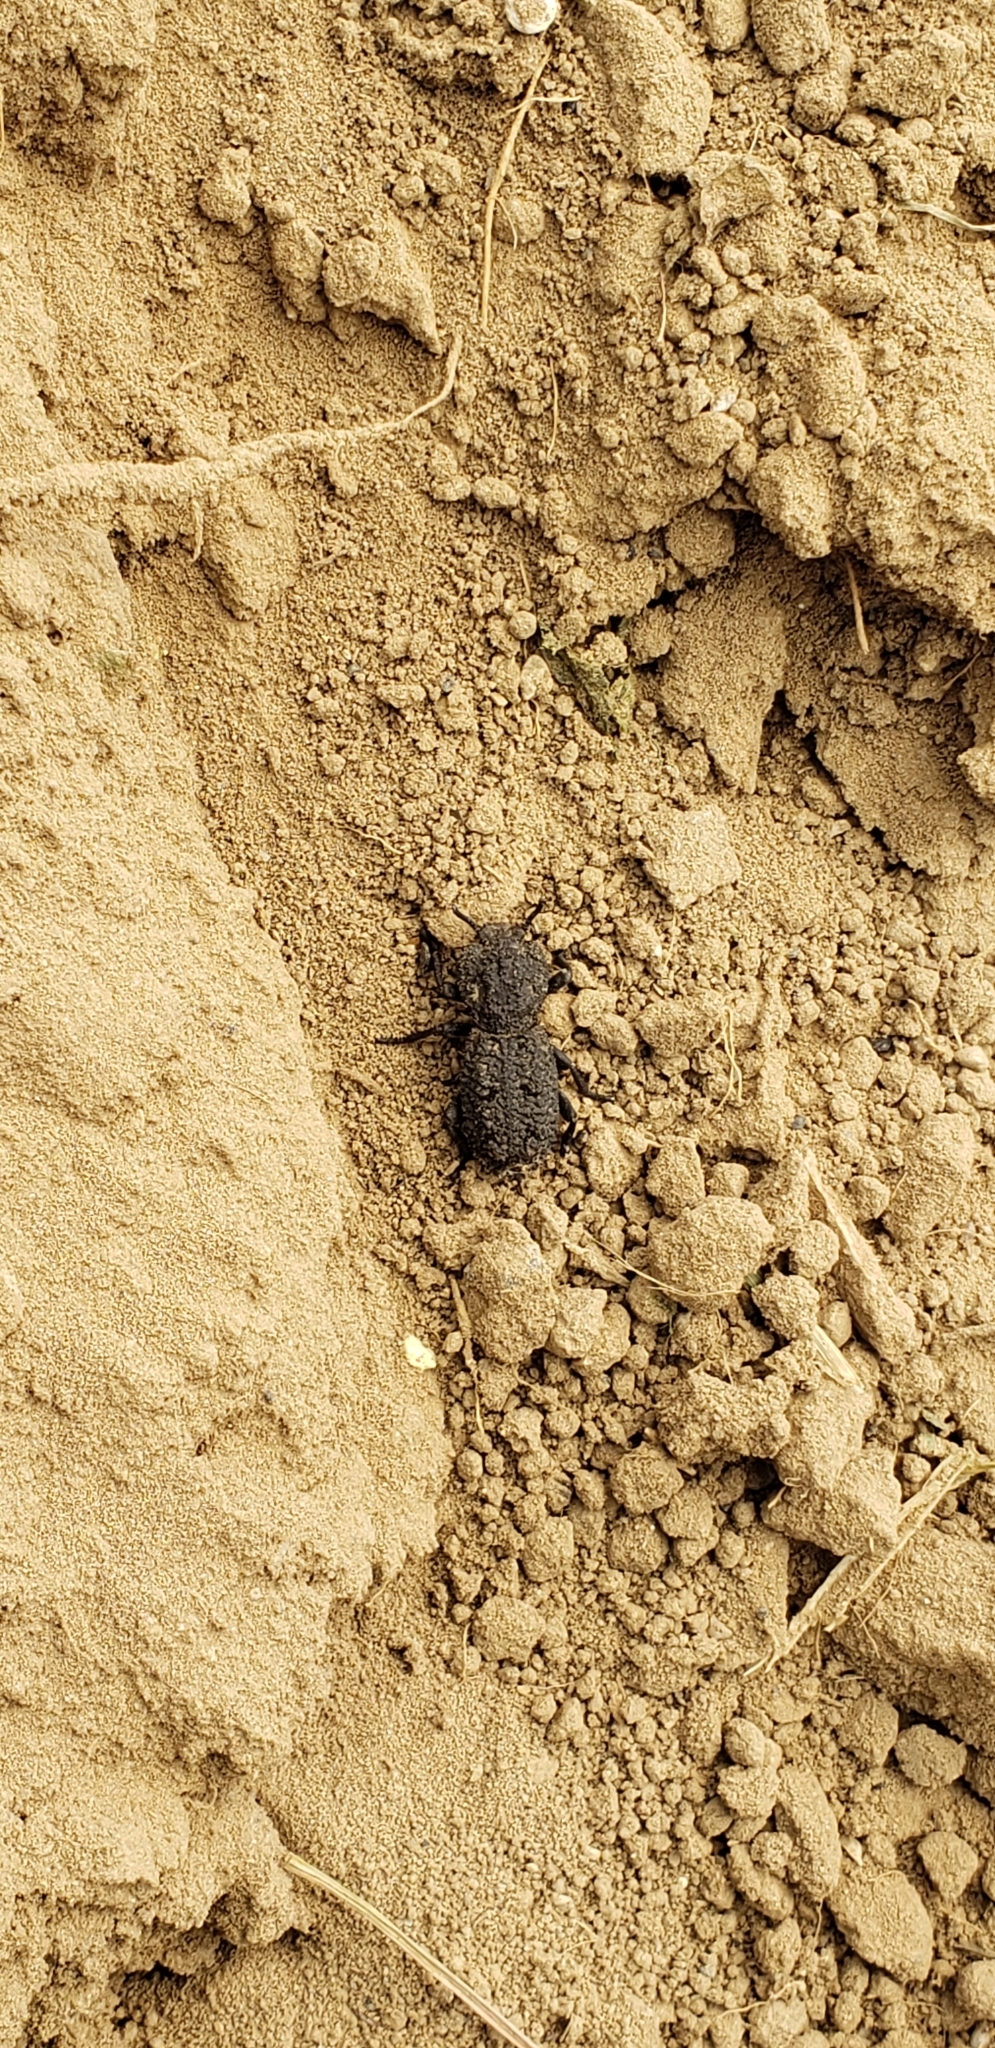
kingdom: Animalia
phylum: Arthropoda
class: Insecta
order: Coleoptera
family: Zopheridae
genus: Phloeodes
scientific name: Phloeodes diabolicus
